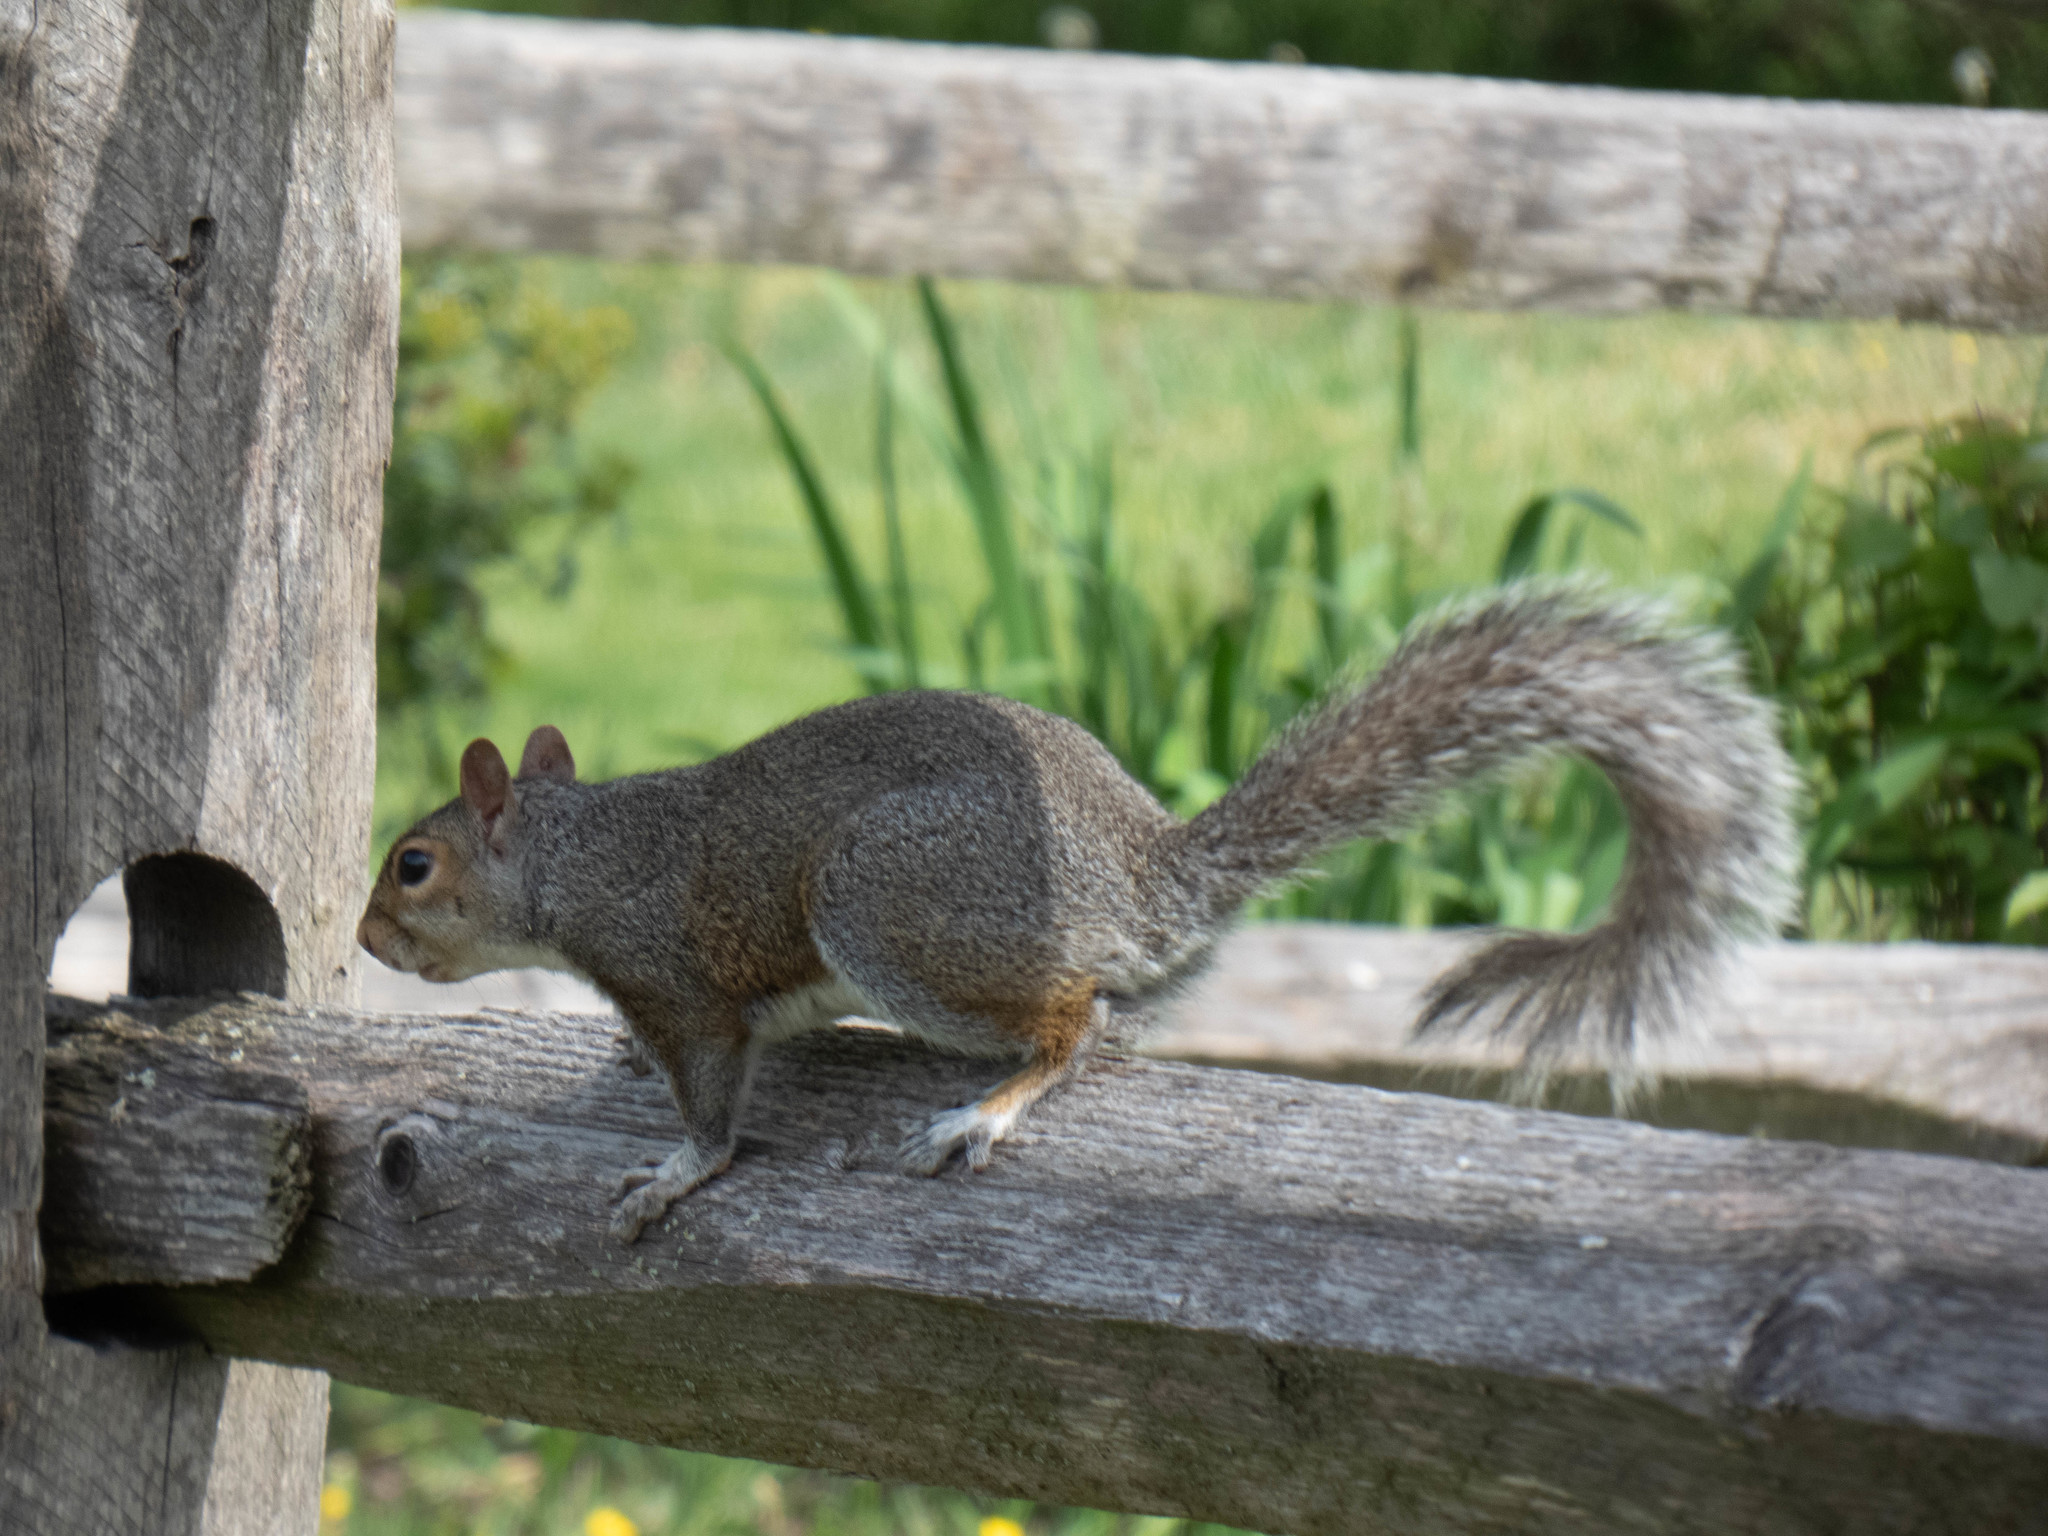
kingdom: Animalia
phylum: Chordata
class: Mammalia
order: Rodentia
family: Sciuridae
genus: Sciurus
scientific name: Sciurus carolinensis
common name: Eastern gray squirrel
